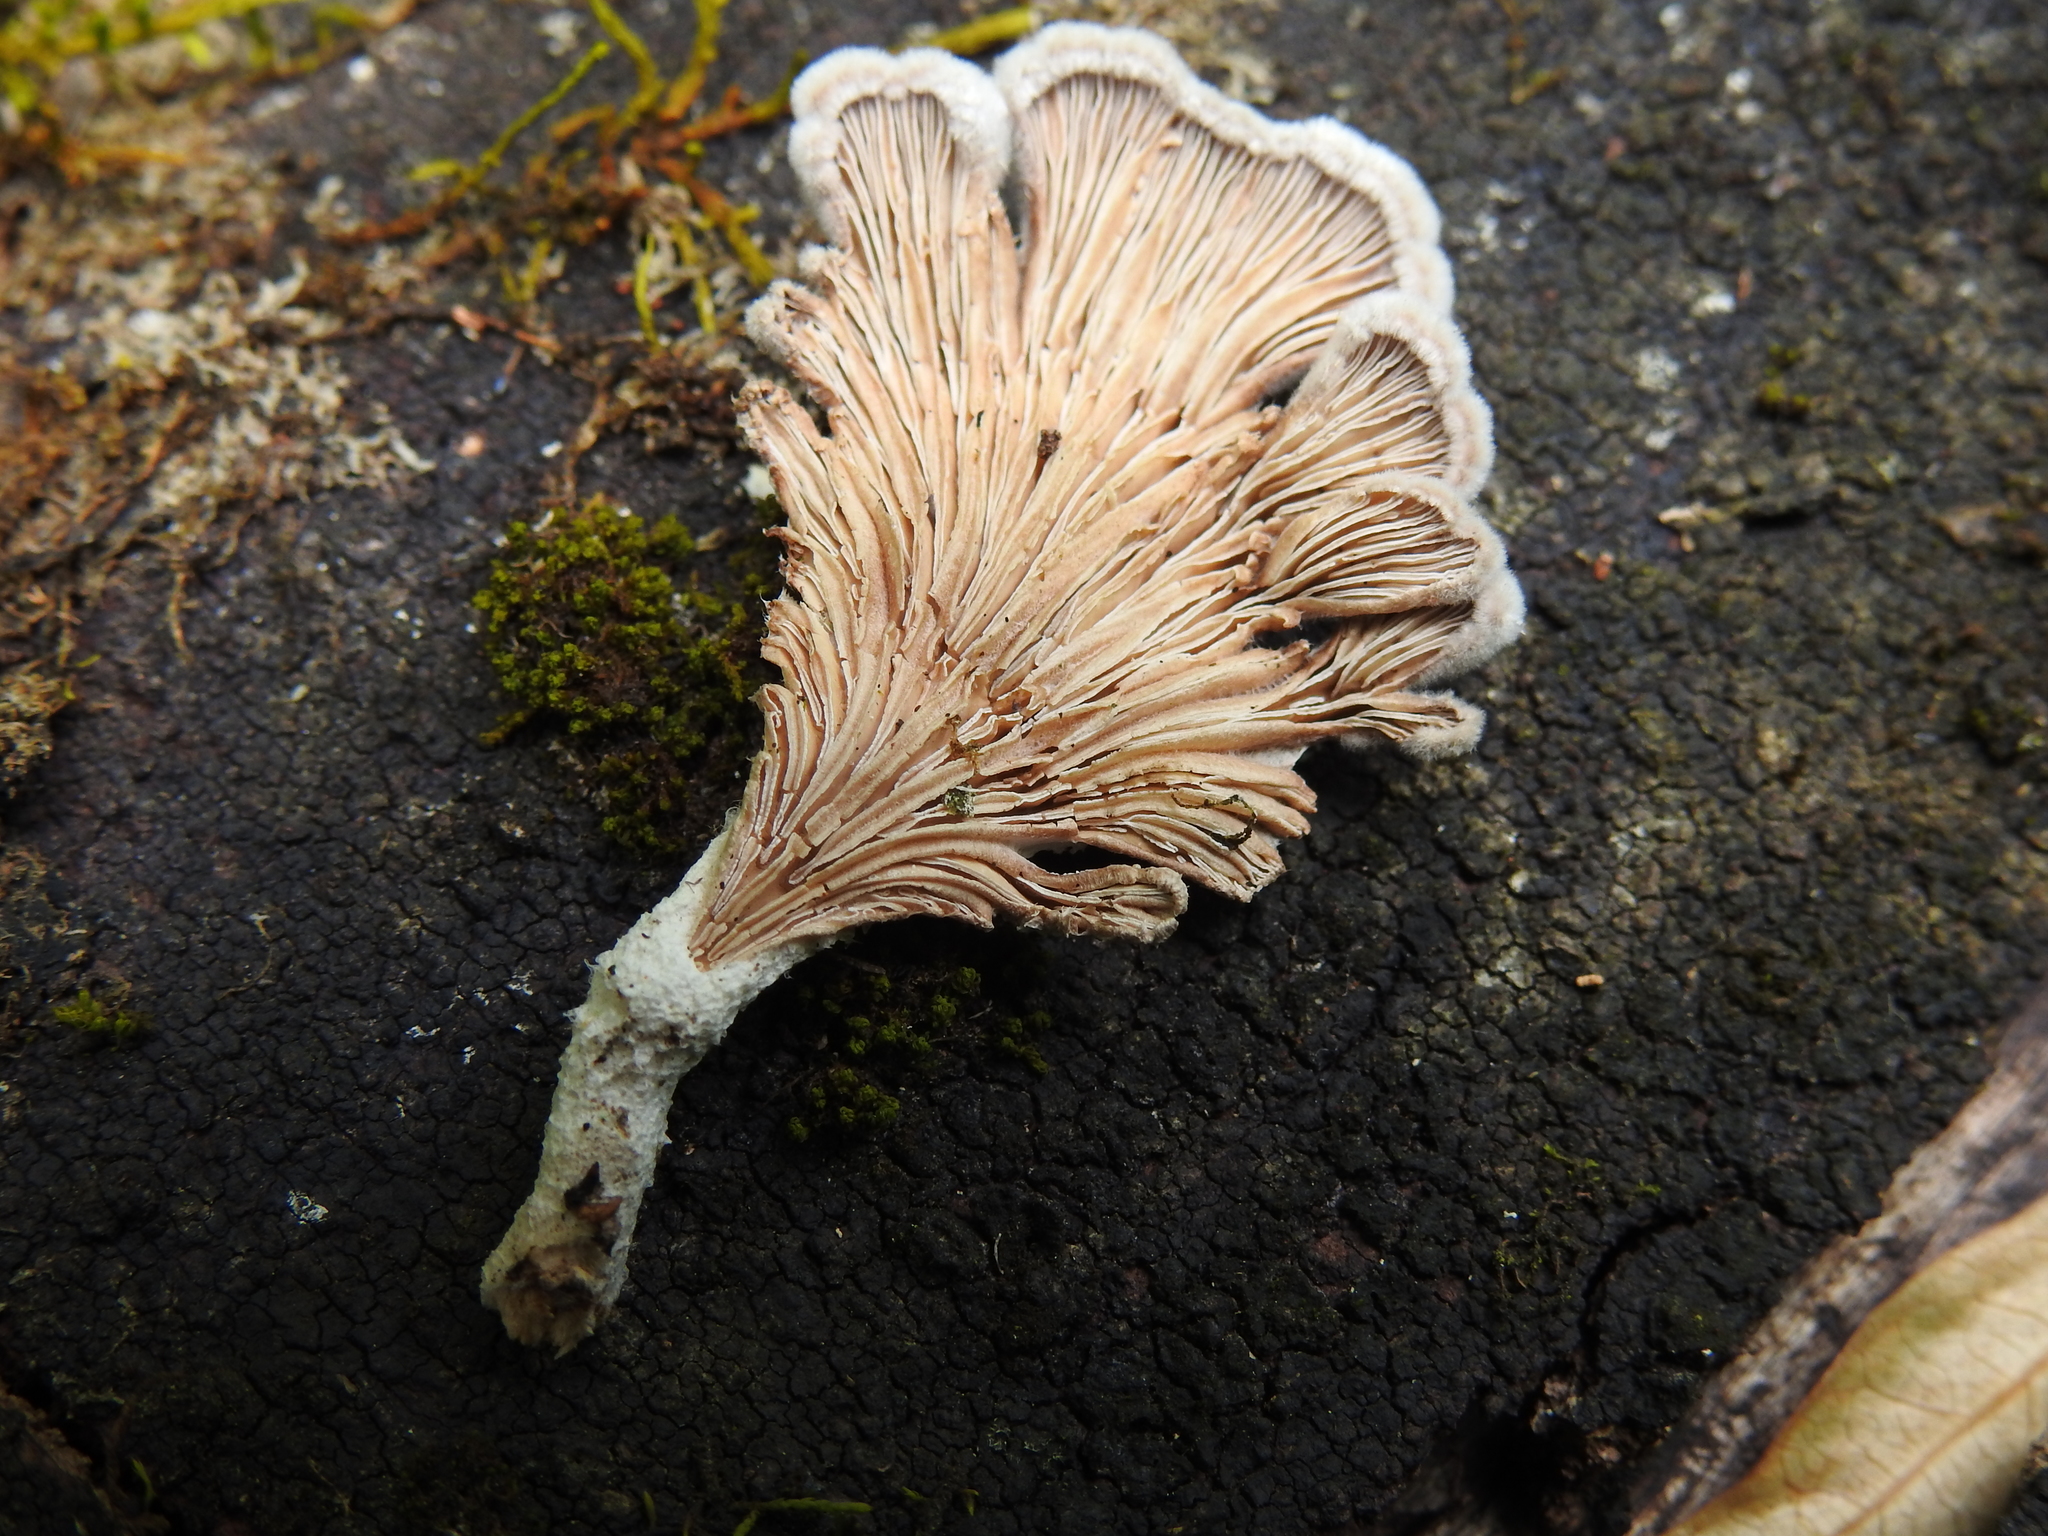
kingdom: Fungi
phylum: Basidiomycota
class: Agaricomycetes
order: Agaricales
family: Schizophyllaceae
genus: Schizophyllum
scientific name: Schizophyllum commune
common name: Common porecrust
